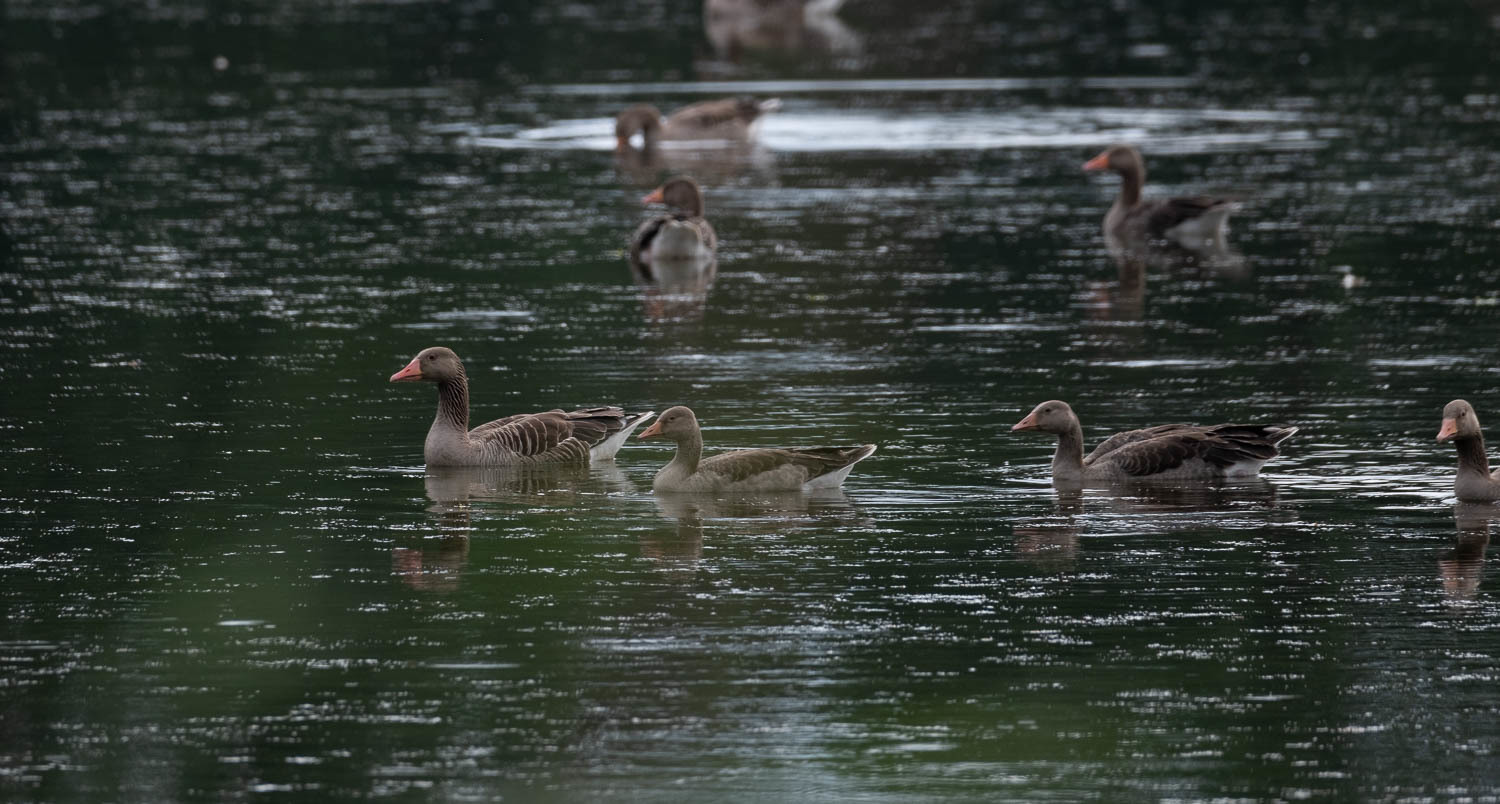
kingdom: Animalia
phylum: Chordata
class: Aves
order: Anseriformes
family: Anatidae
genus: Anser
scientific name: Anser anser
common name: Greylag goose
